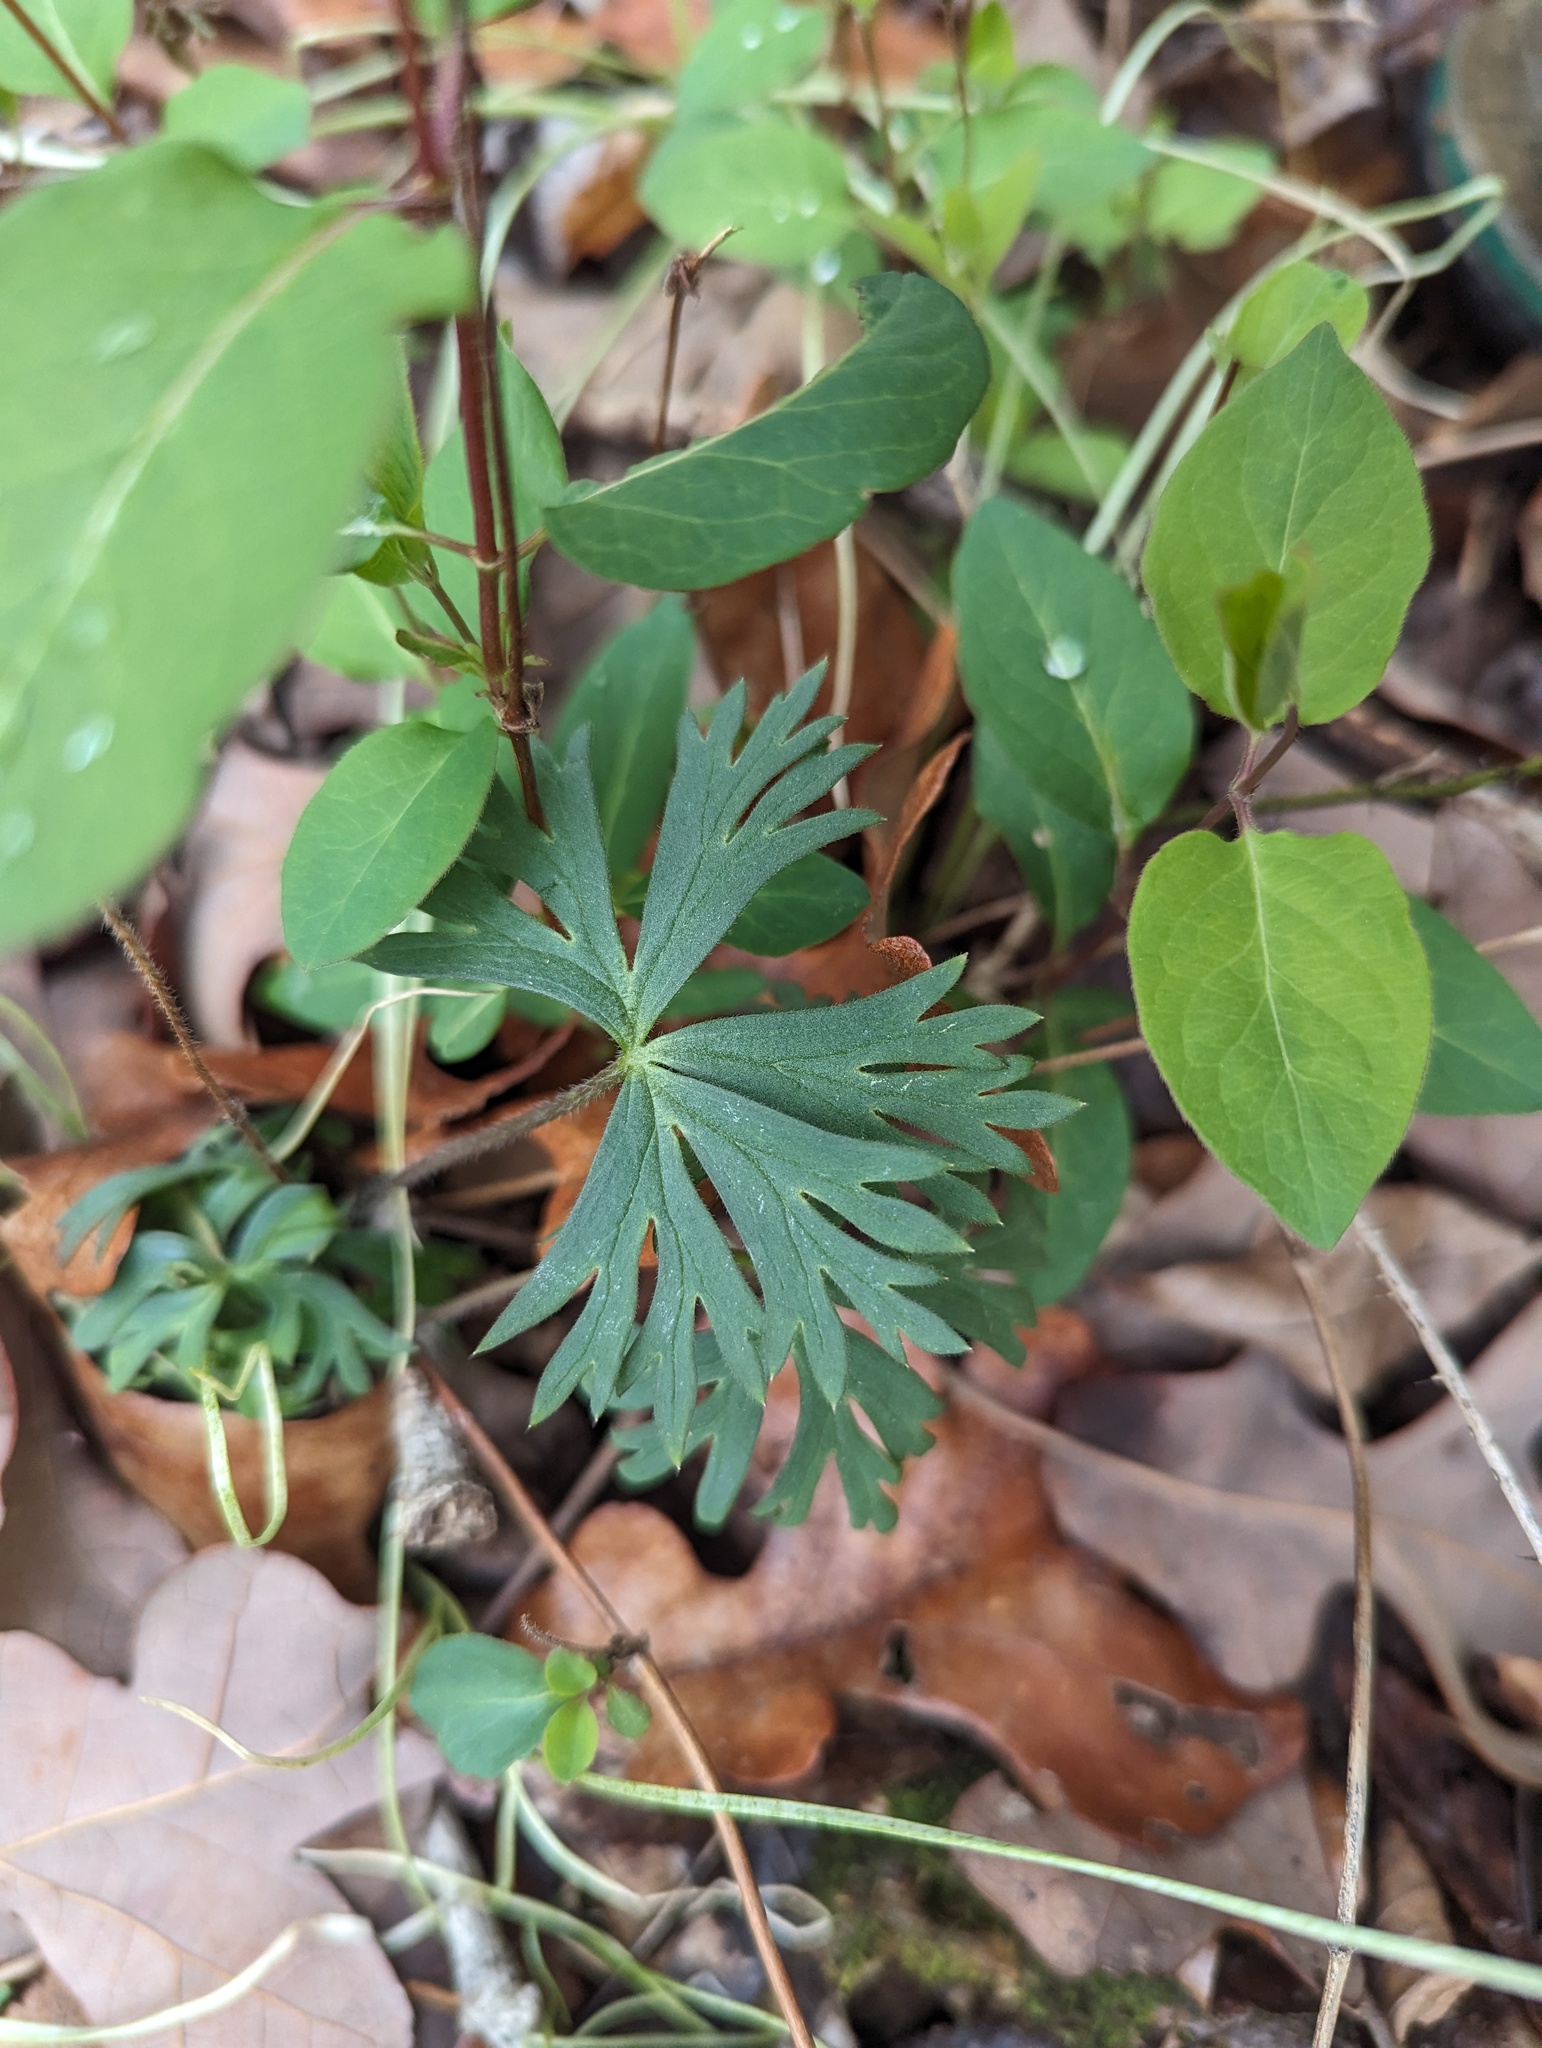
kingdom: Plantae
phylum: Tracheophyta
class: Magnoliopsida
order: Ranunculales
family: Ranunculaceae
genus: Delphinium
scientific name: Delphinium tricorne
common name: Dwarf larkspur
